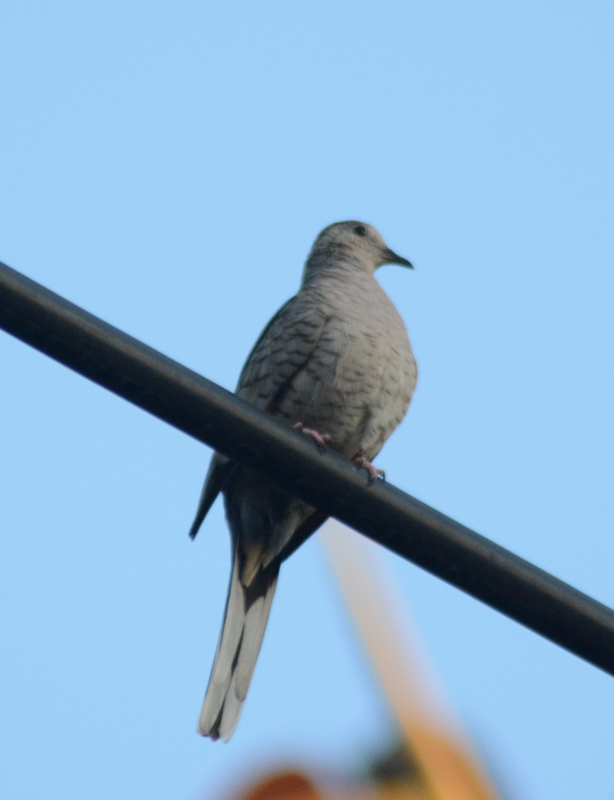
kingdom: Animalia
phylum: Chordata
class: Aves
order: Columbiformes
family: Columbidae
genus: Columbina
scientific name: Columbina inca
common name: Inca dove
